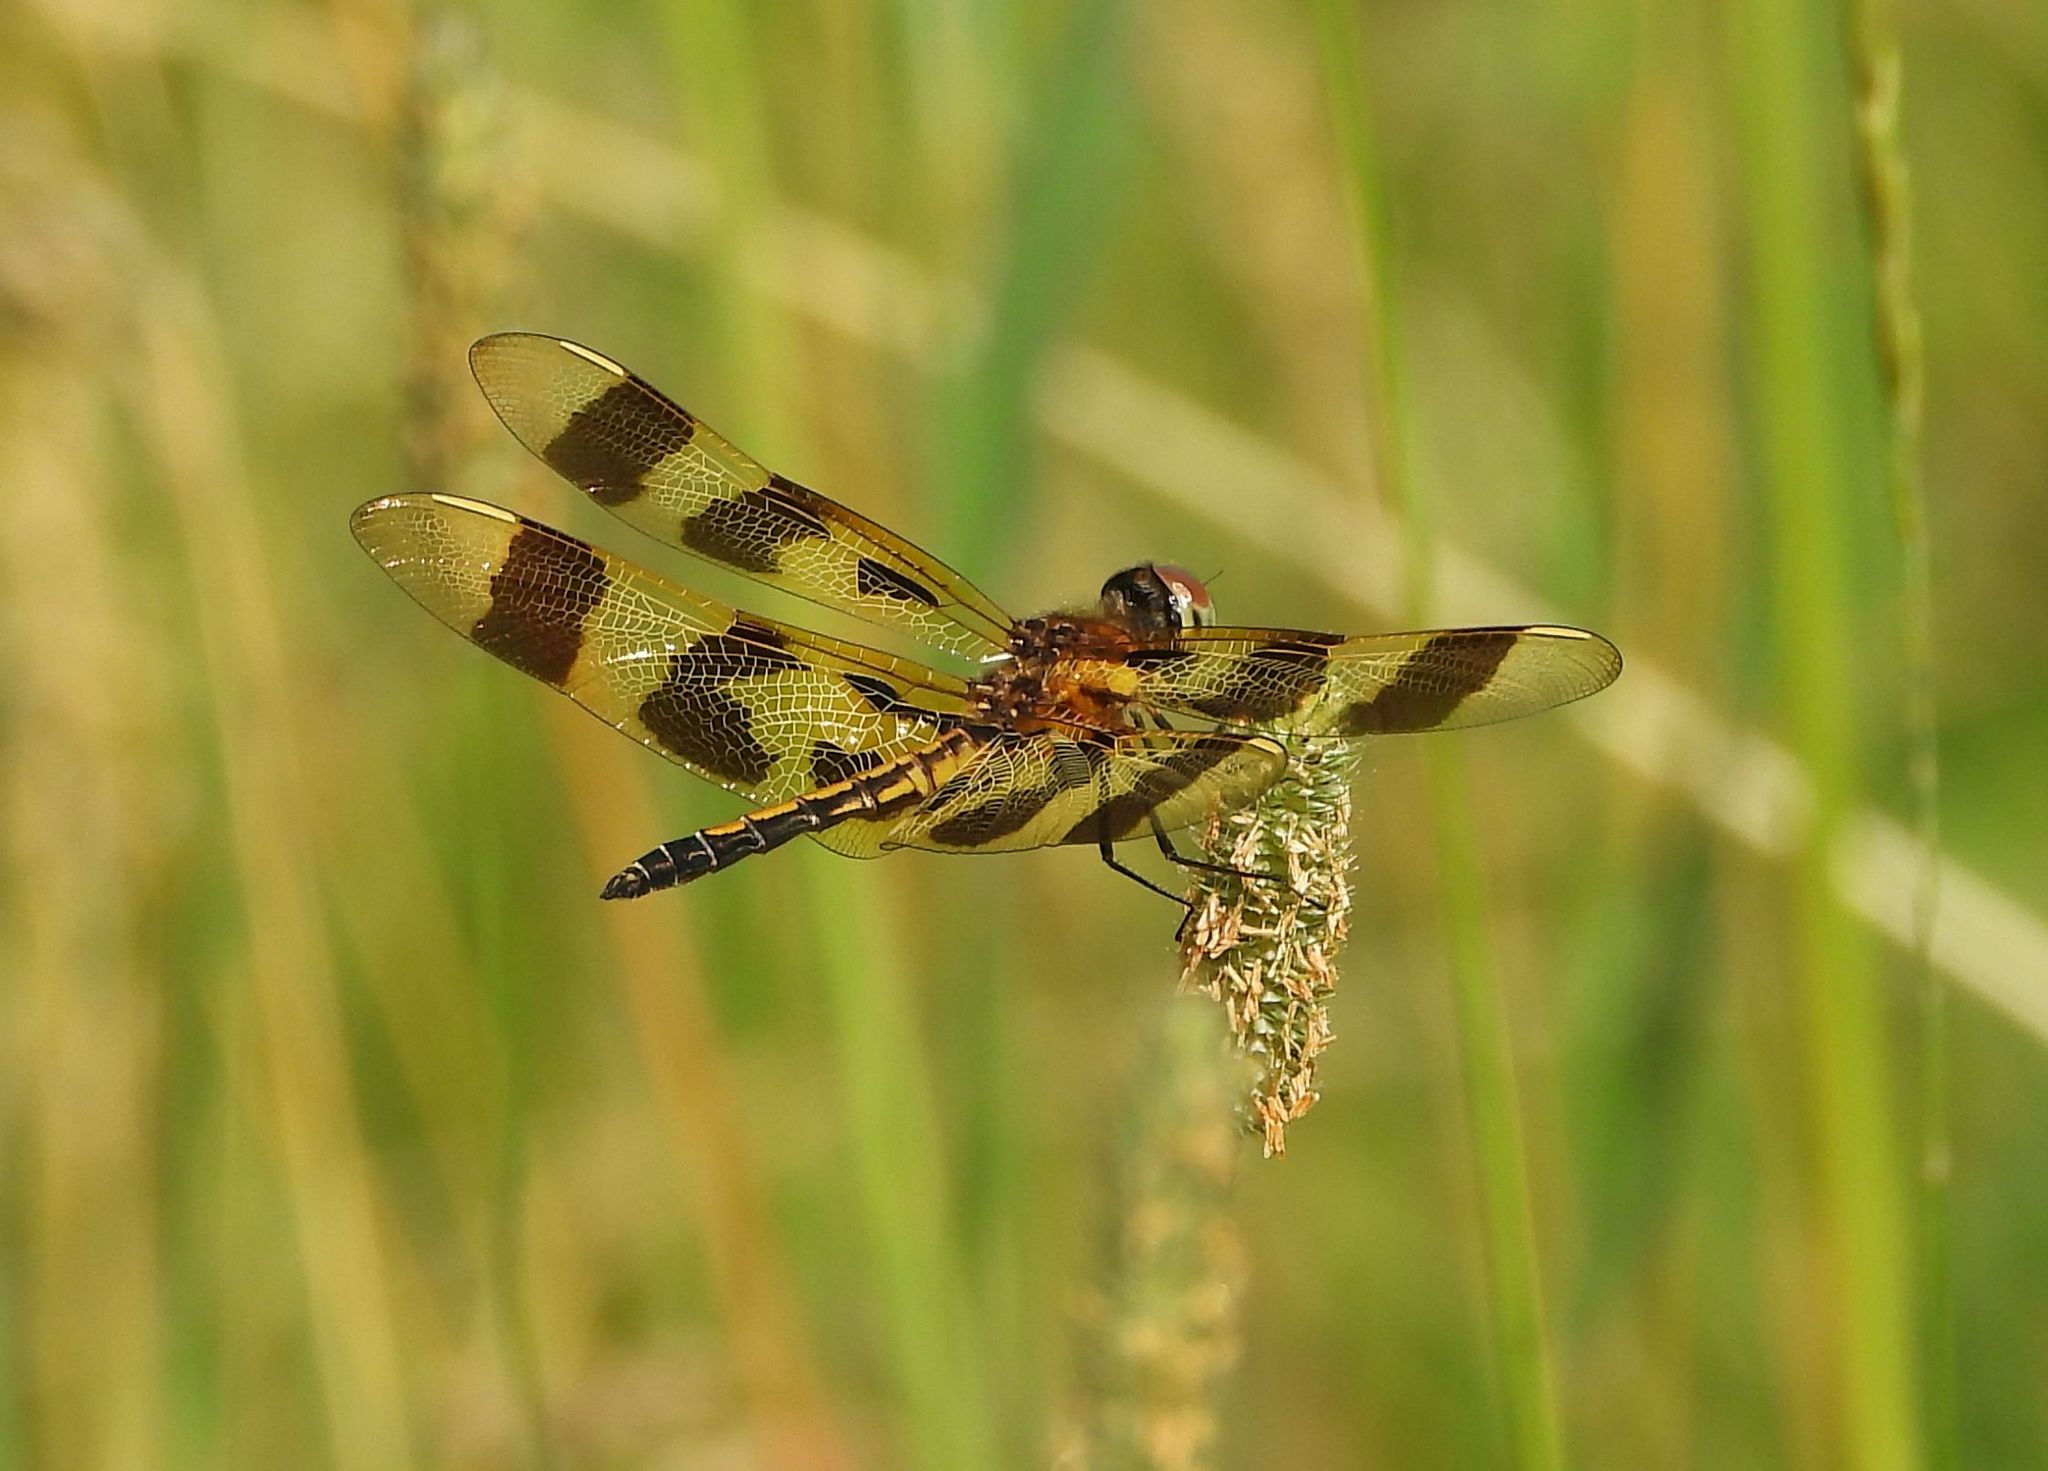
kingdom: Animalia
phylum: Arthropoda
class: Insecta
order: Odonata
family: Libellulidae
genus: Celithemis
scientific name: Celithemis eponina
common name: Halloween pennant
